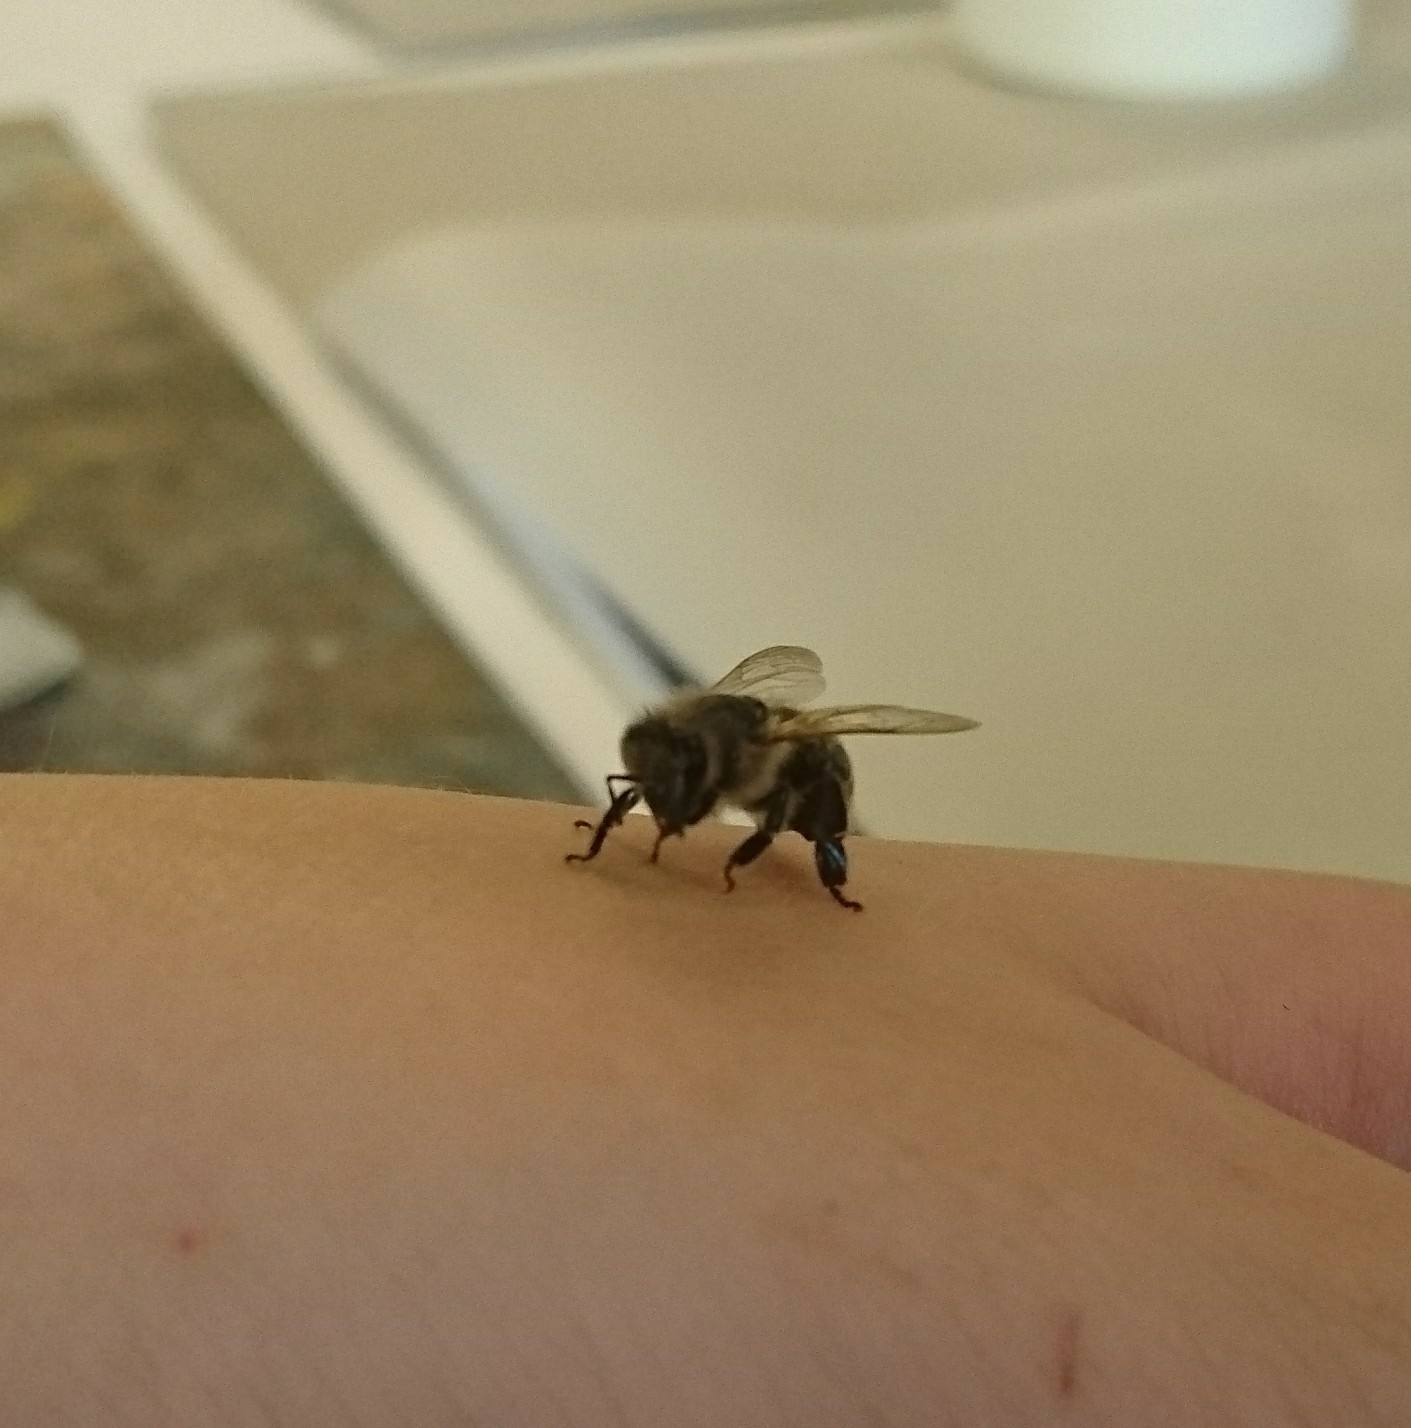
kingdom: Animalia
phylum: Arthropoda
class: Insecta
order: Hymenoptera
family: Apidae
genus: Apis
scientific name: Apis mellifera
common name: Honey bee
